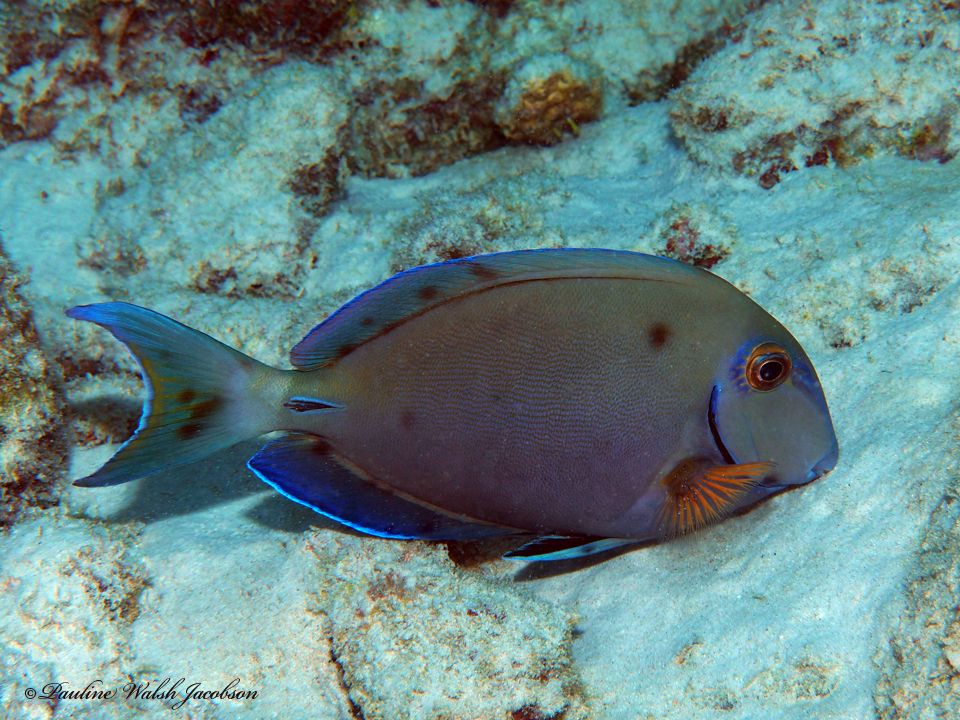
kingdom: Animalia
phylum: Chordata
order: Perciformes
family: Acanthuridae
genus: Acanthurus
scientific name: Acanthurus bahianus
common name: Ocean surgeon
